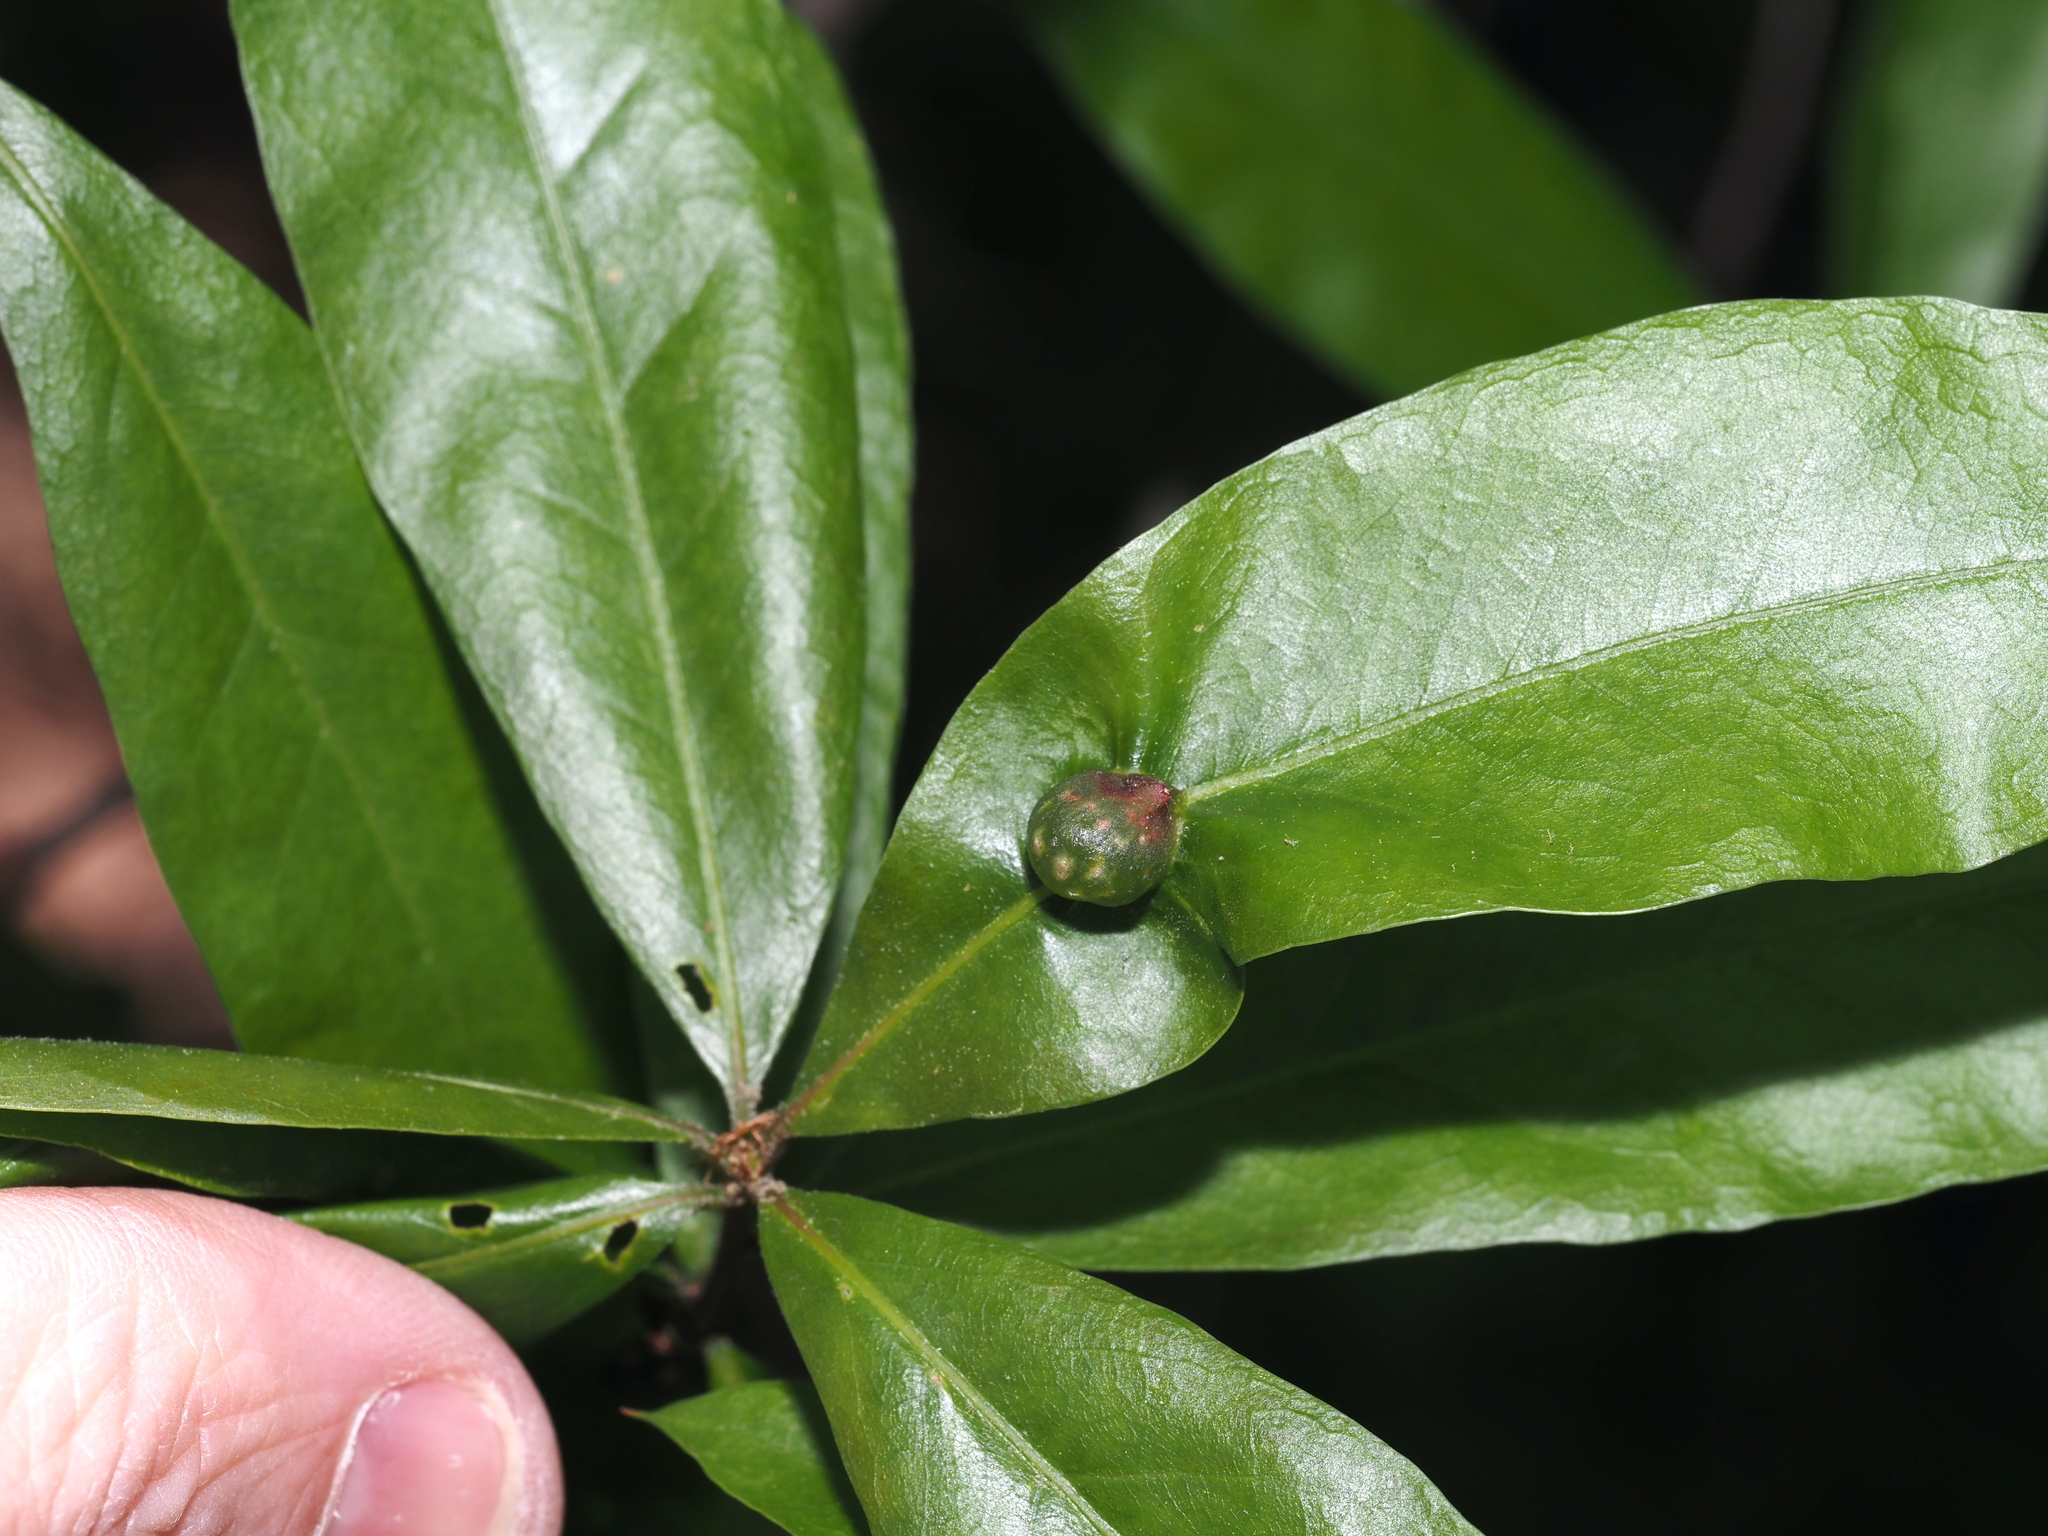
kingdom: Animalia
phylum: Arthropoda
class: Insecta
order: Hymenoptera
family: Cynipidae
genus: Dryocosmus
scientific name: Dryocosmus
